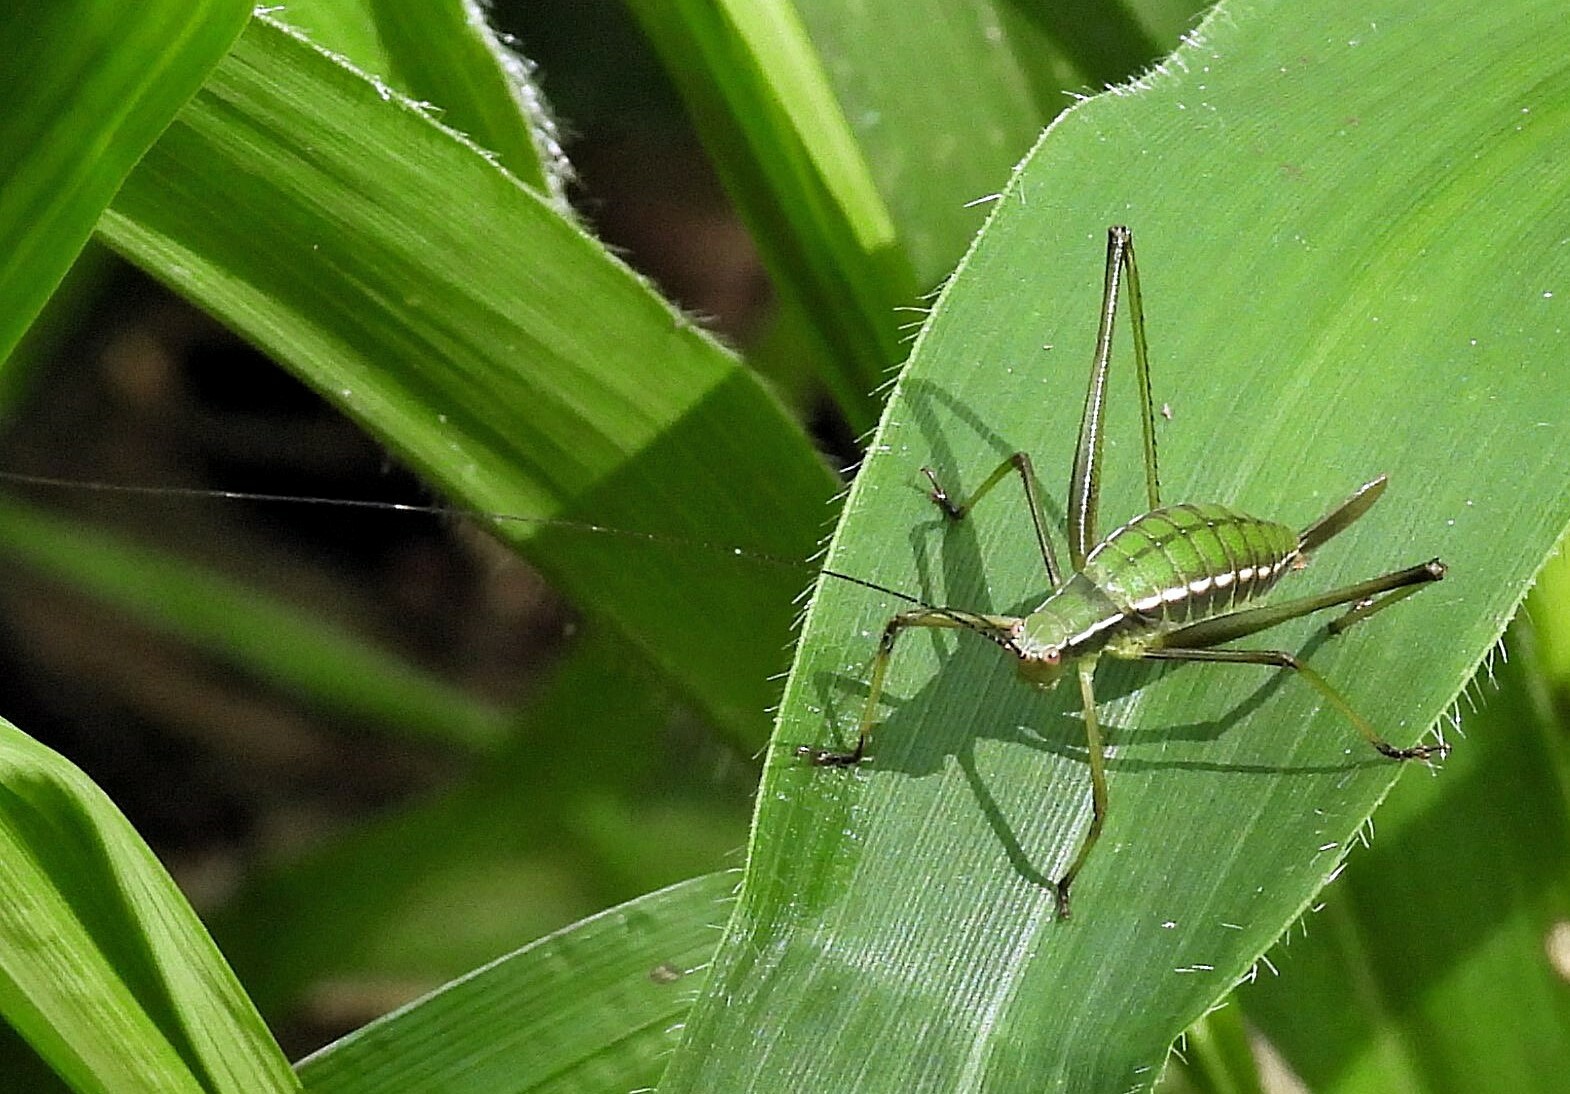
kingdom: Animalia
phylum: Arthropoda
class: Insecta
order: Orthoptera
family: Tettigoniidae
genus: Xenicola
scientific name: Xenicola xukrixi
